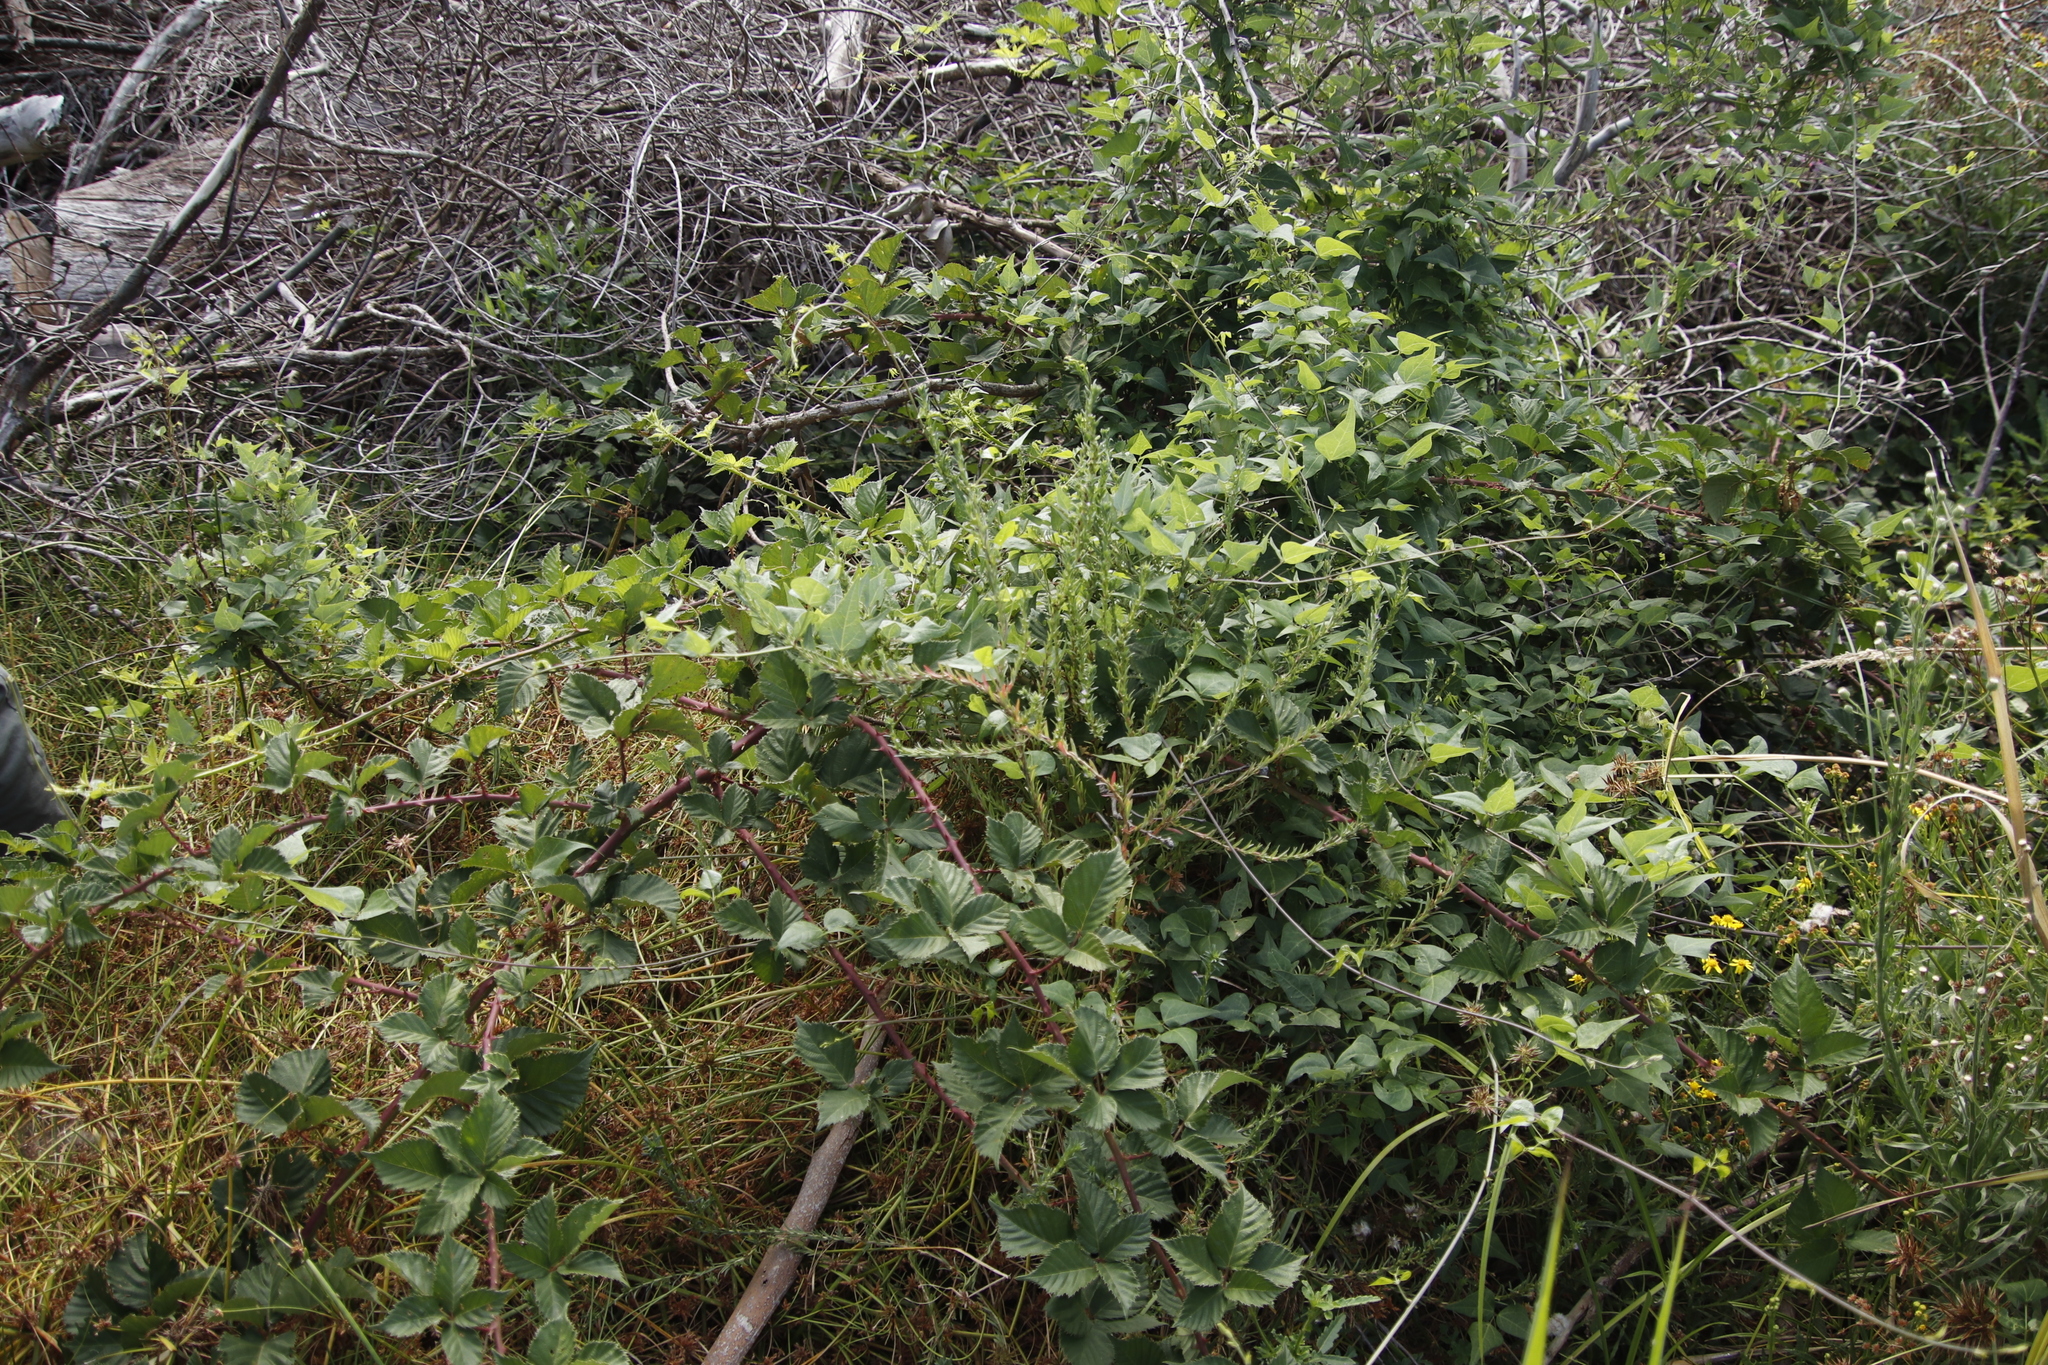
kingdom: Plantae
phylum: Tracheophyta
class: Magnoliopsida
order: Rosales
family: Rosaceae
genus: Rubus
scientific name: Rubus affinis
